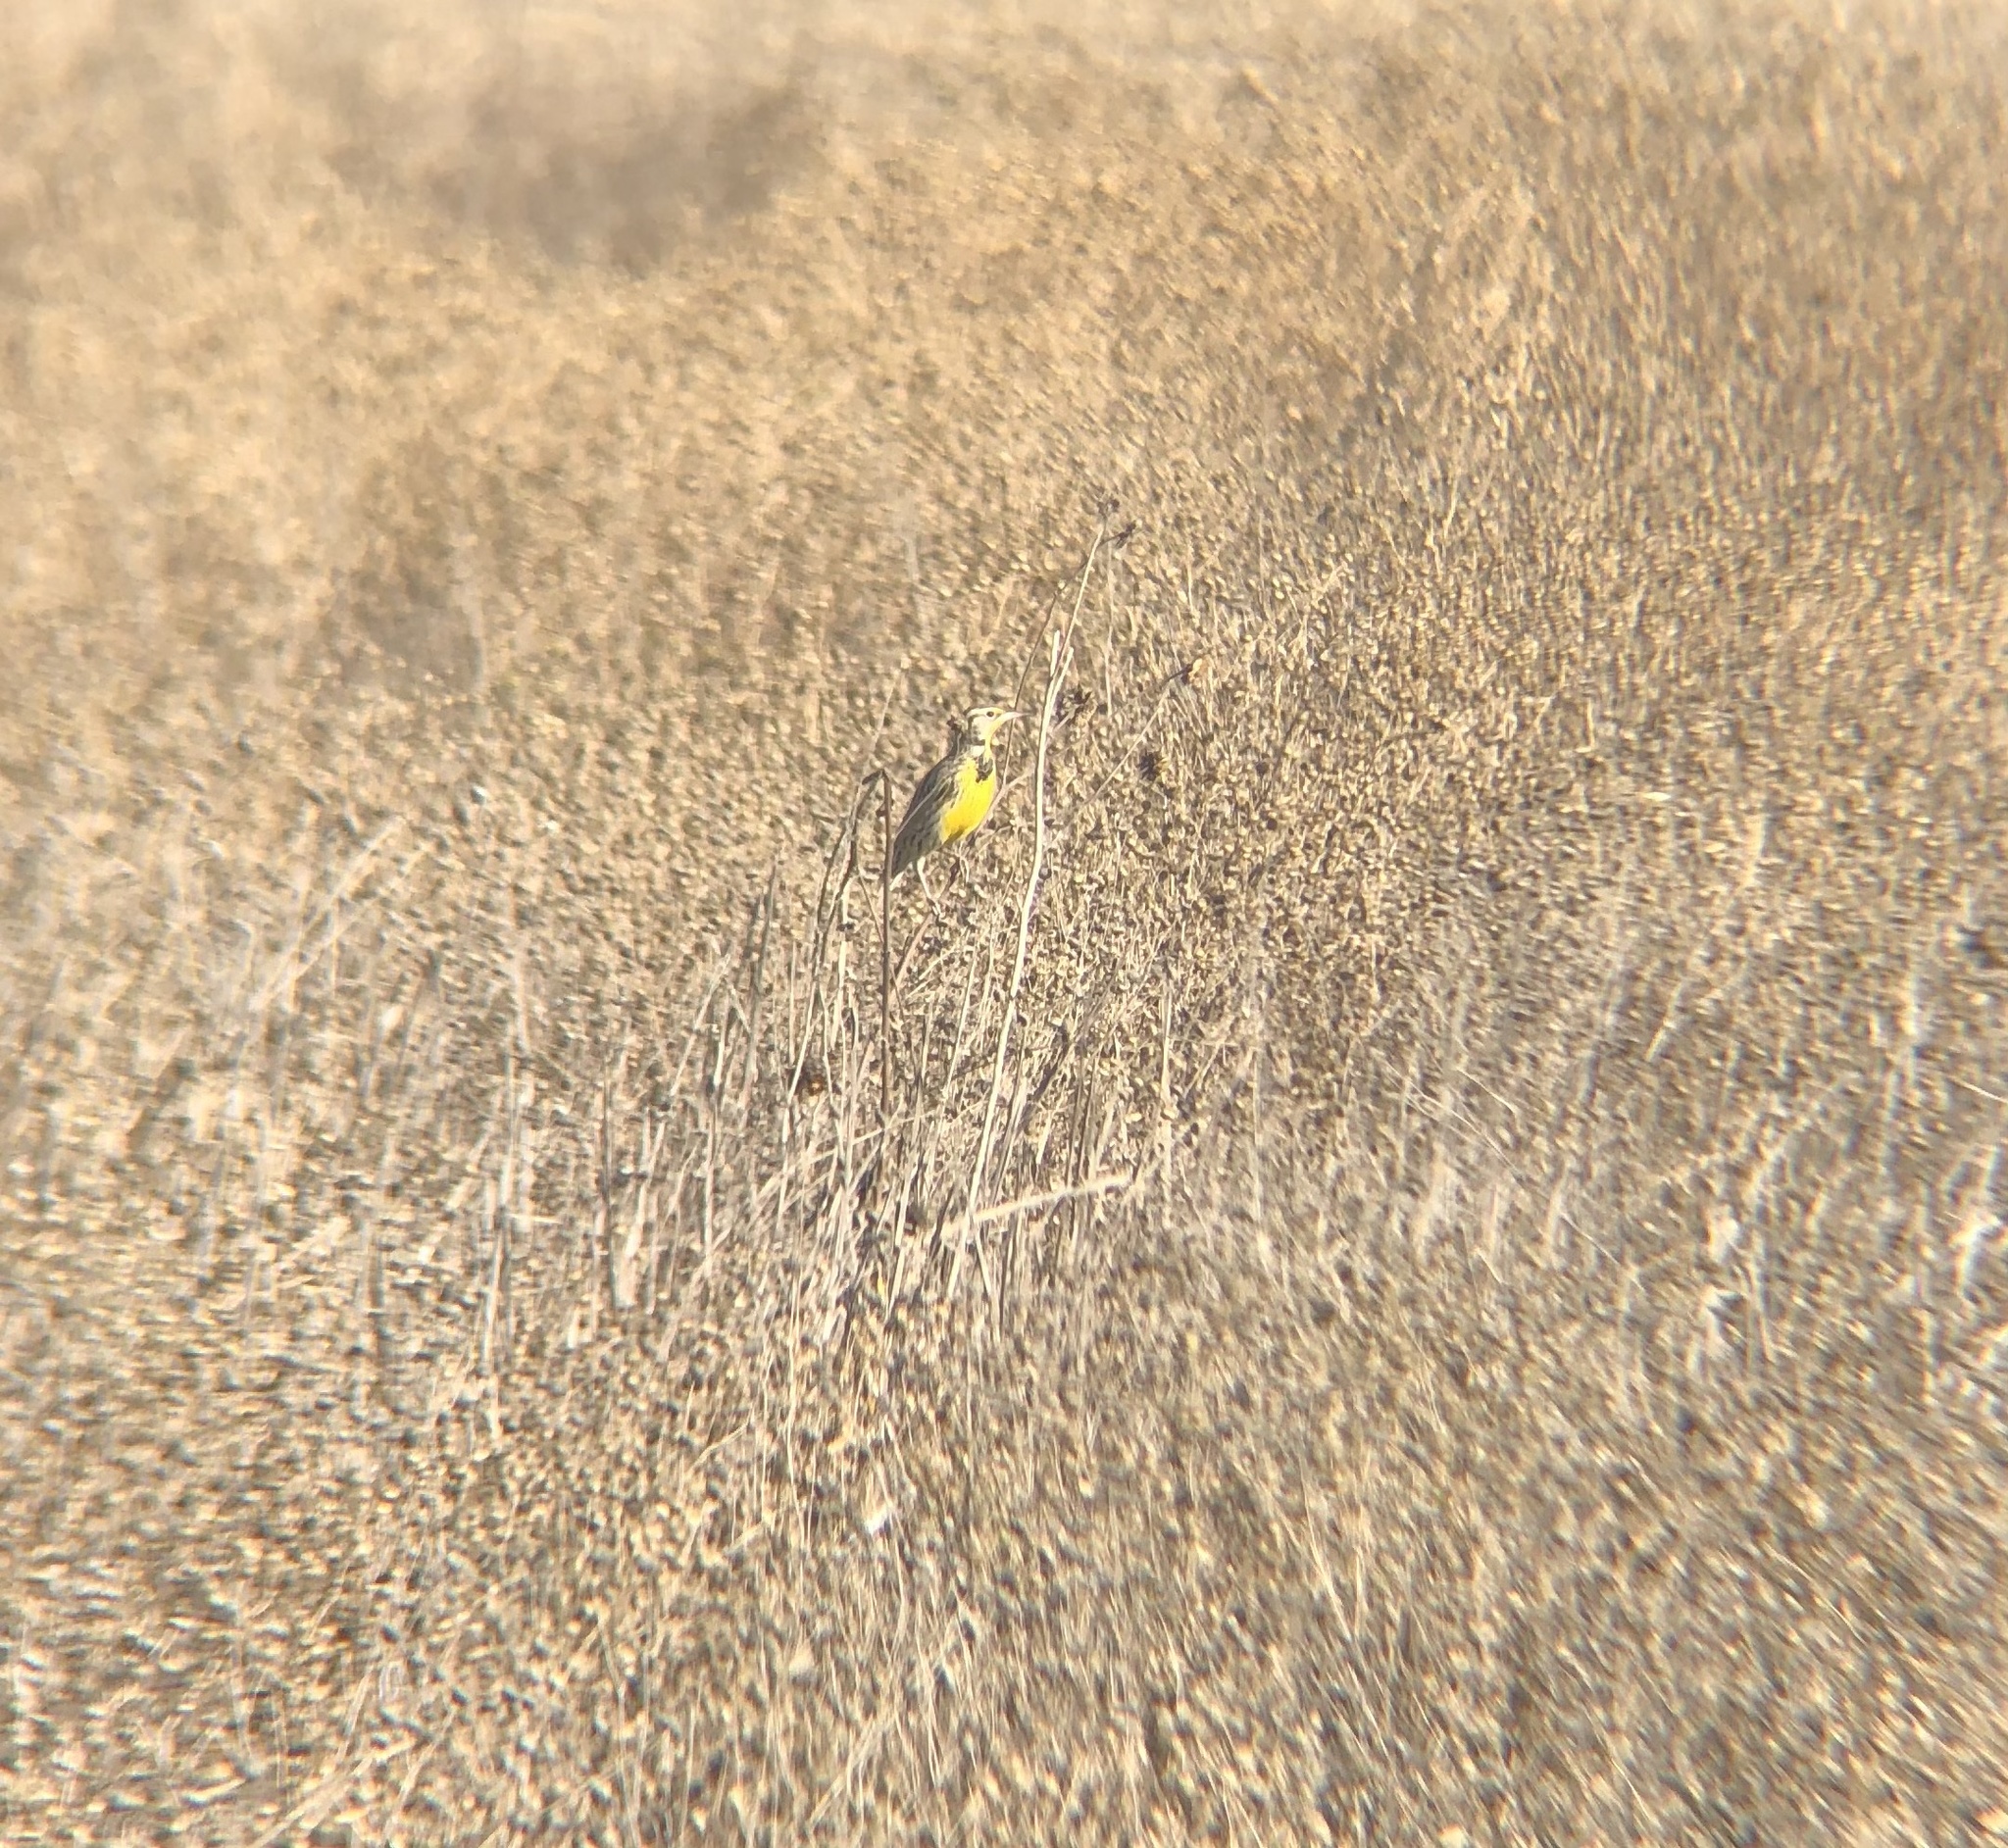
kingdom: Animalia
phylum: Chordata
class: Aves
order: Passeriformes
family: Icteridae
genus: Sturnella
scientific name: Sturnella neglecta
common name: Western meadowlark
